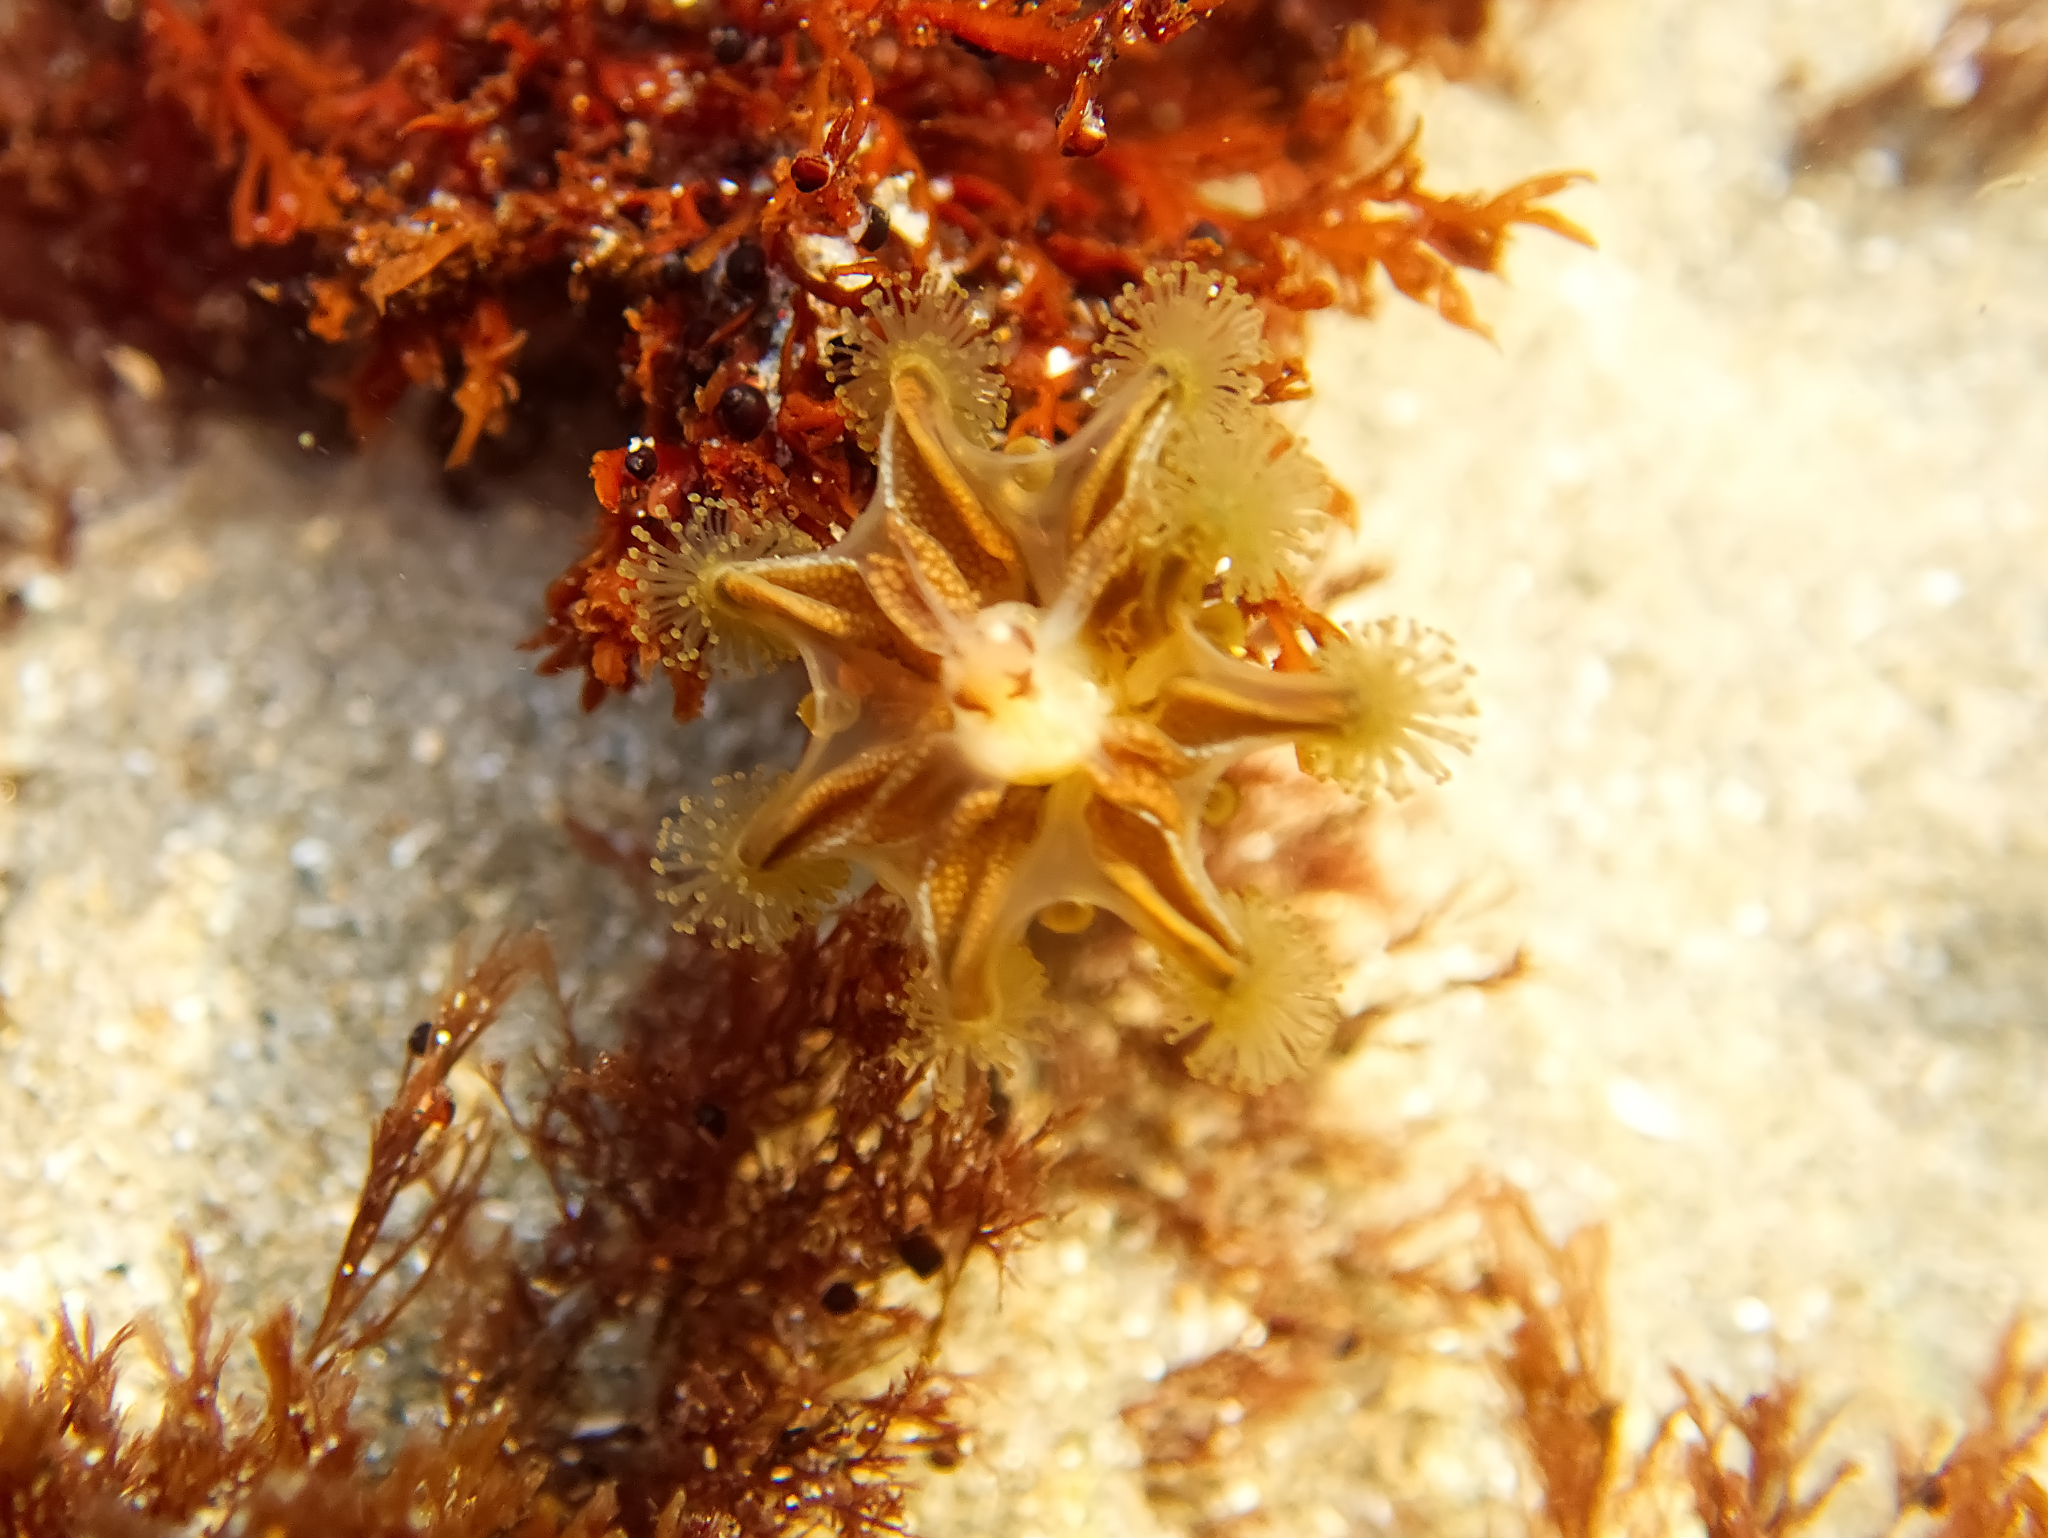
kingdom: Animalia
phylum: Cnidaria
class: Staurozoa
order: Stauromedusae
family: Haliclystidae
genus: Haliclystus
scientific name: Haliclystus sanjuanensis
